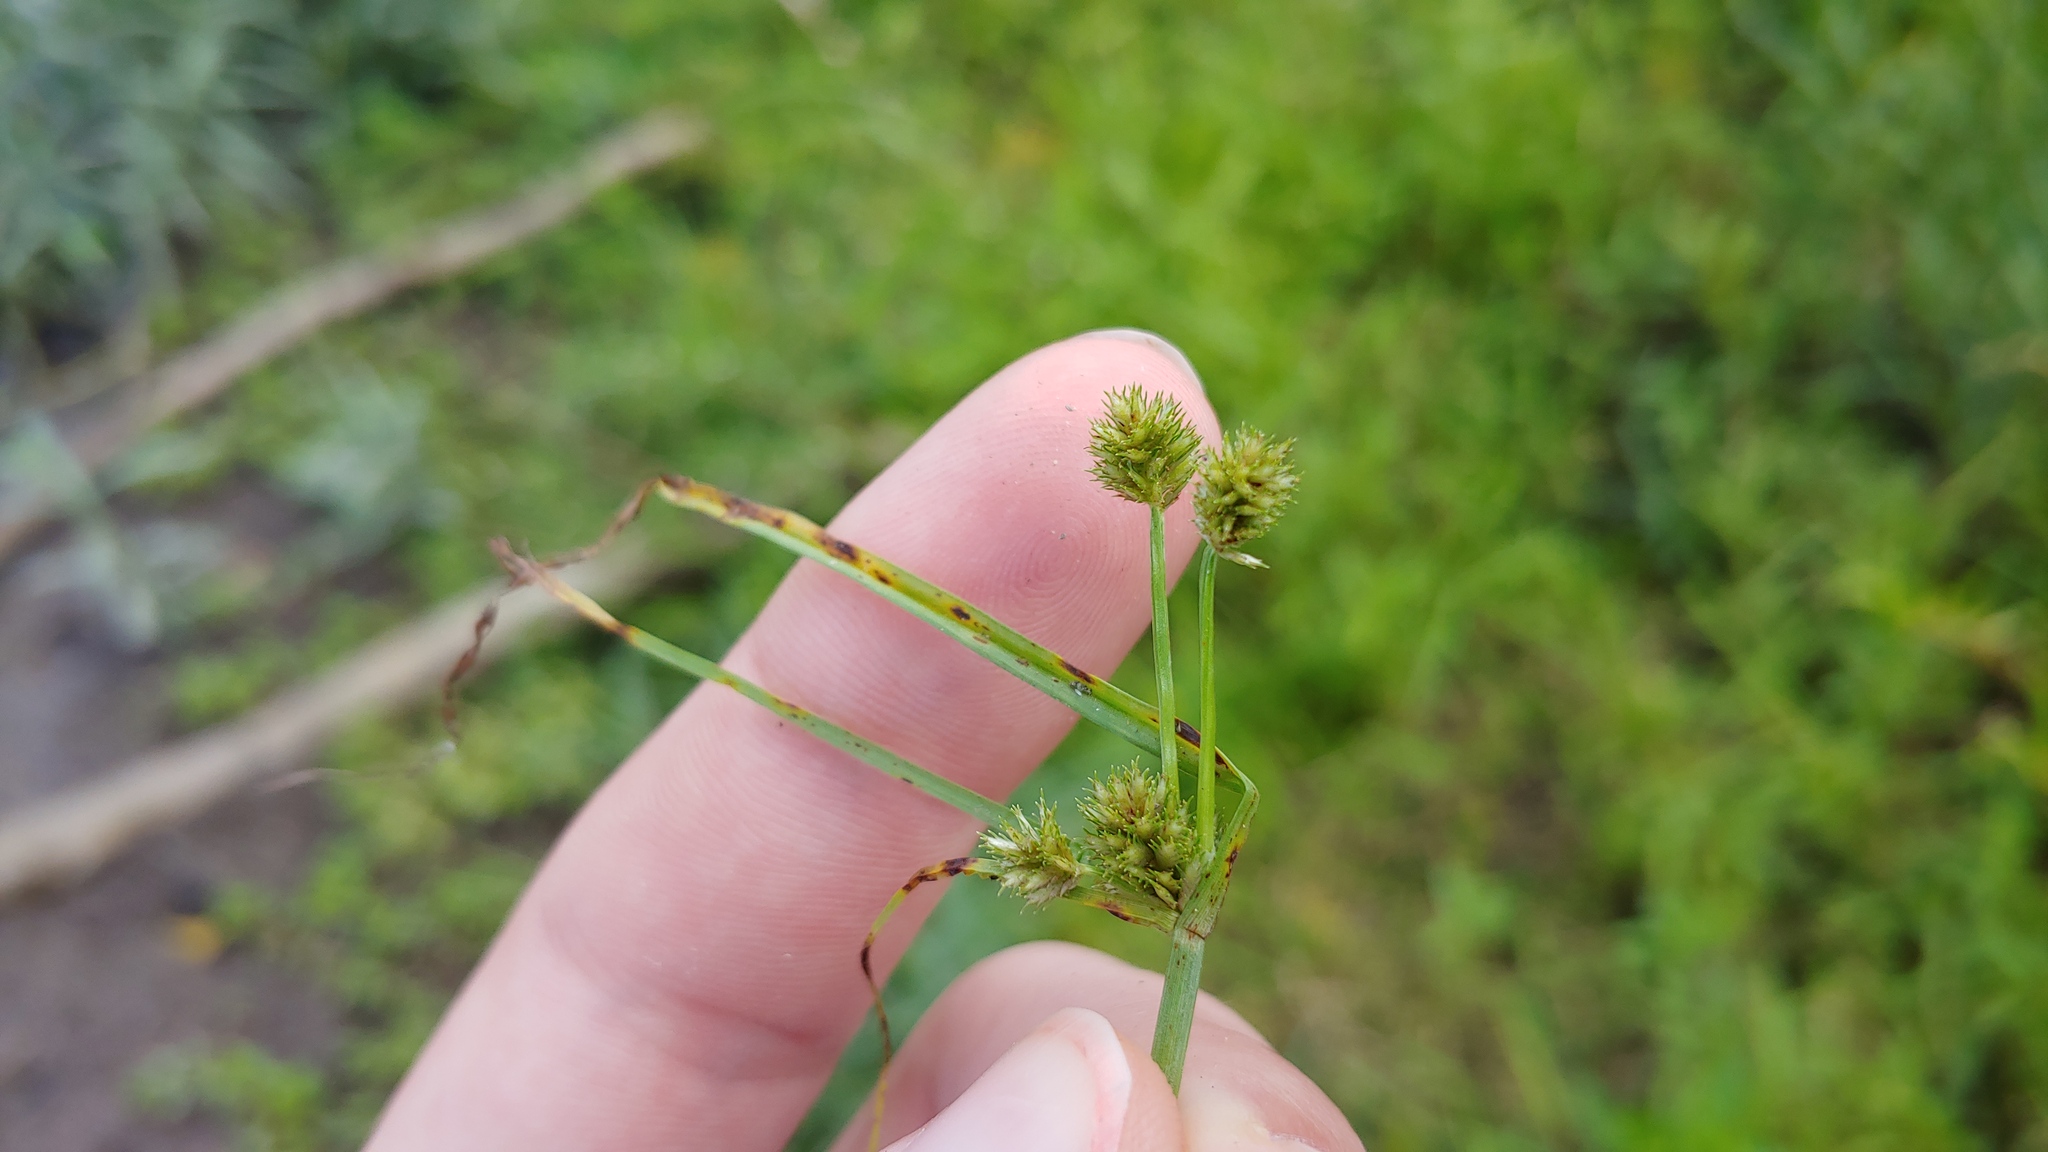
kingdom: Plantae
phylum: Tracheophyta
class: Liliopsida
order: Poales
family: Cyperaceae
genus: Cyperus
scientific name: Cyperus squarrosus
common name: Awned cyperus
